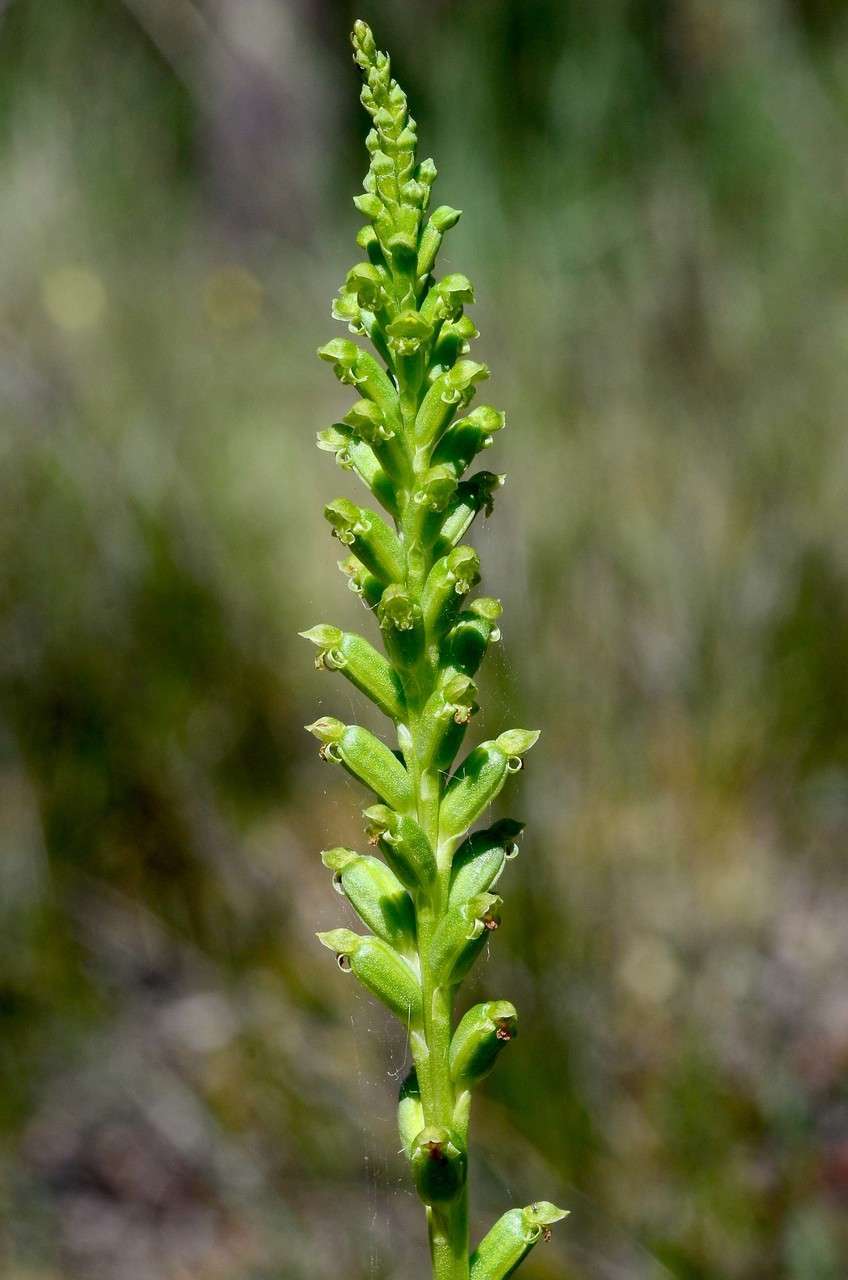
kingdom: Plantae
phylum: Tracheophyta
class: Liliopsida
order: Asparagales
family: Orchidaceae
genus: Microtis
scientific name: Microtis unifolia
